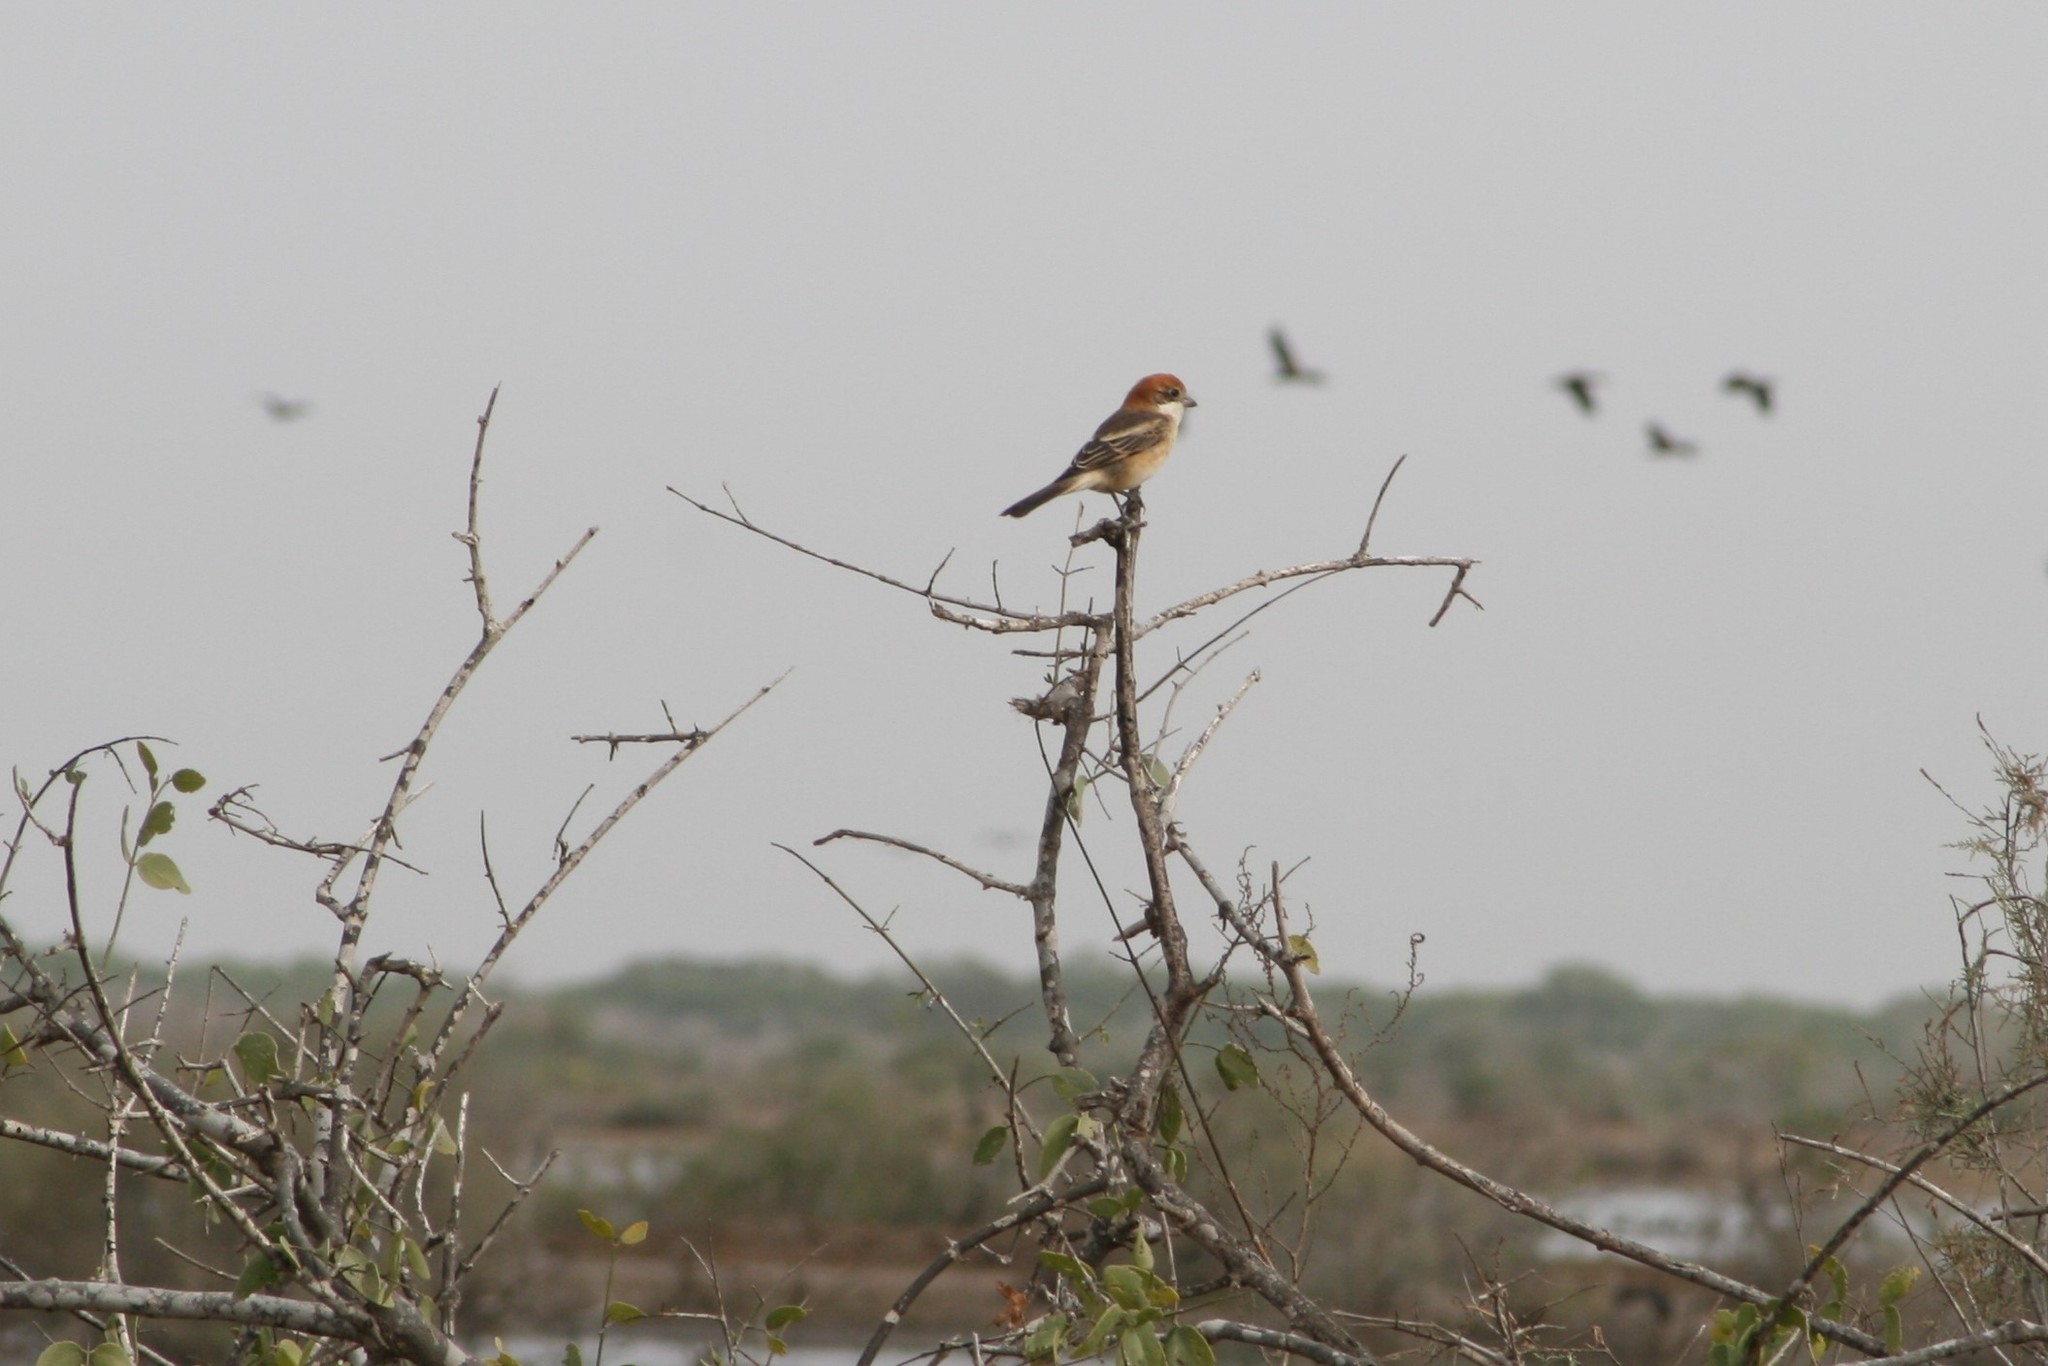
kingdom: Animalia
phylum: Chordata
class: Aves
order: Passeriformes
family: Laniidae
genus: Lanius
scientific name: Lanius senator
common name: Woodchat shrike
